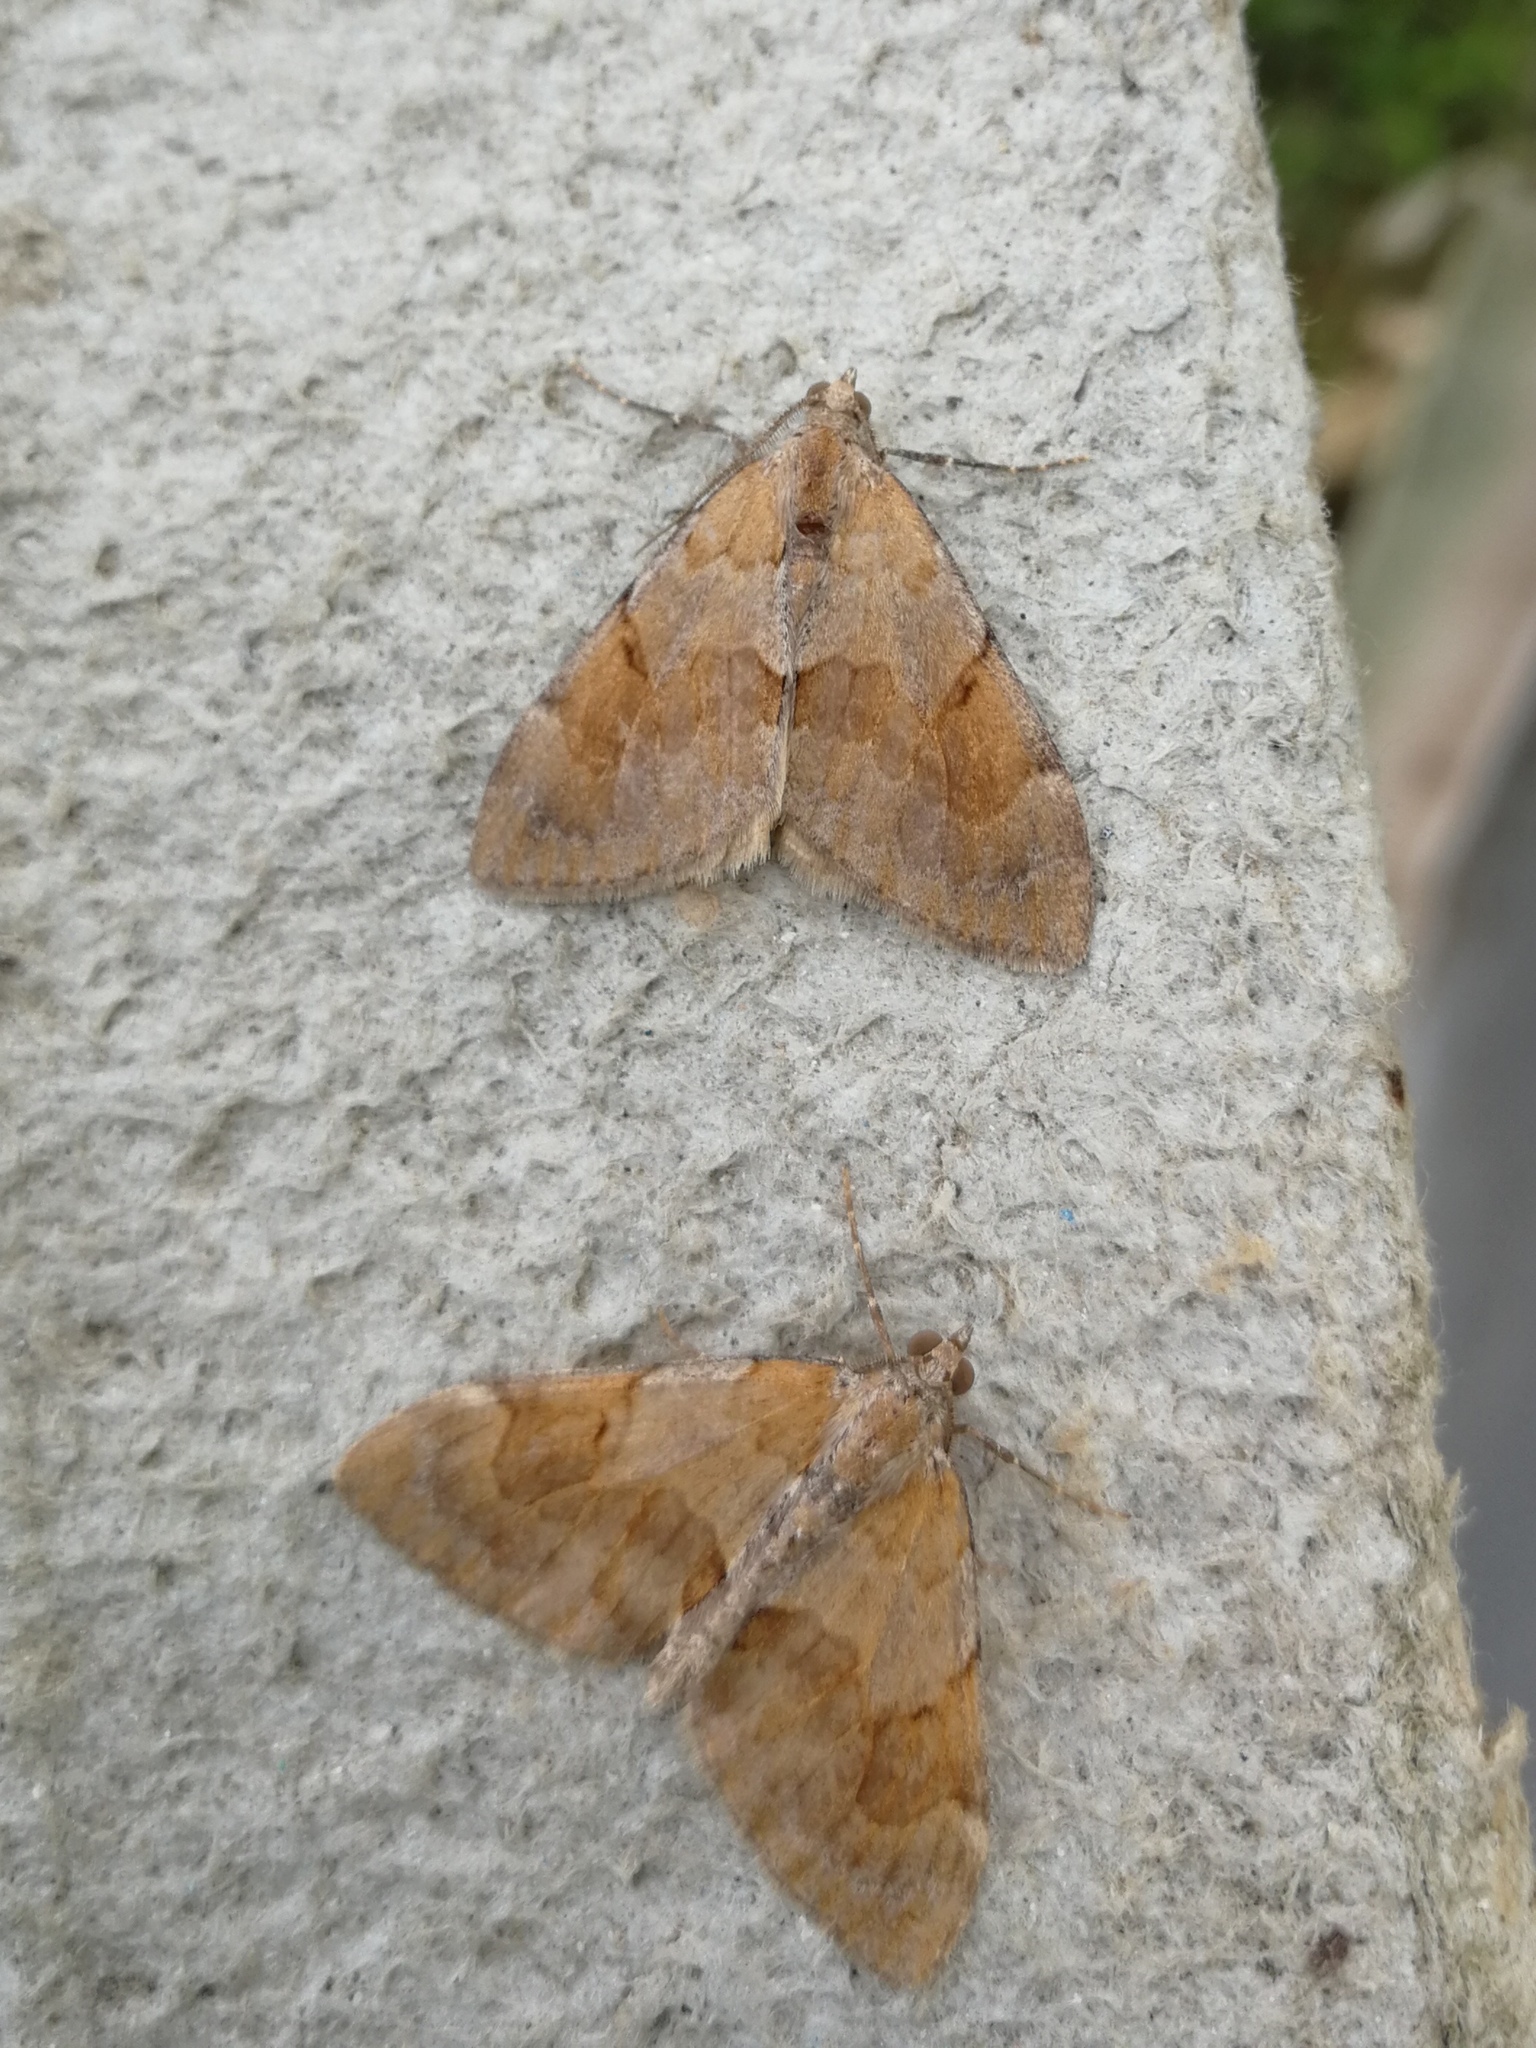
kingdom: Animalia
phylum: Arthropoda
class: Insecta
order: Lepidoptera
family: Geometridae
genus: Pennithera
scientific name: Pennithera firmata
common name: Pine carpet
